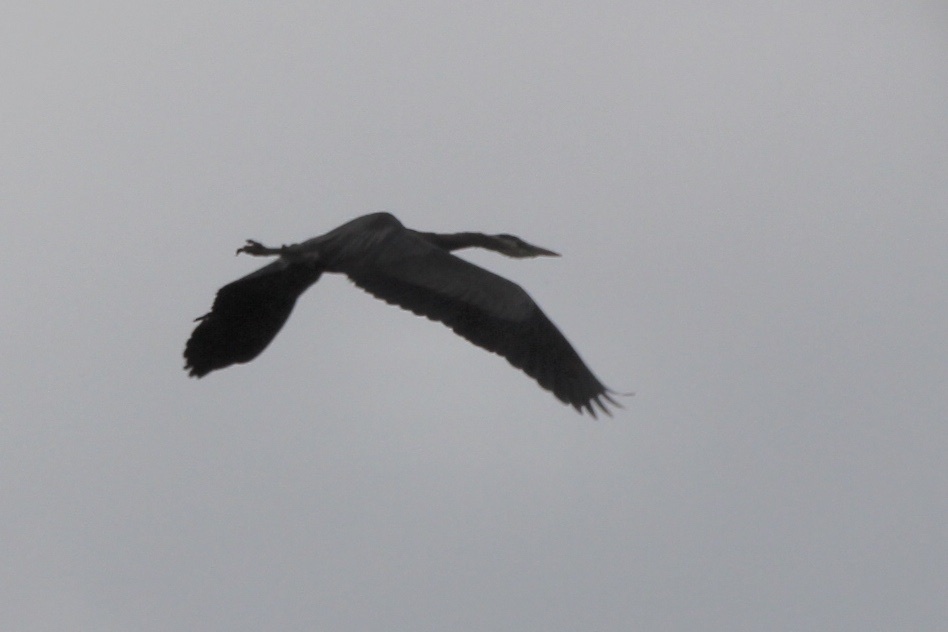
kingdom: Animalia
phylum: Chordata
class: Aves
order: Pelecaniformes
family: Ardeidae
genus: Ardea
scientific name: Ardea herodias
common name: Great blue heron
